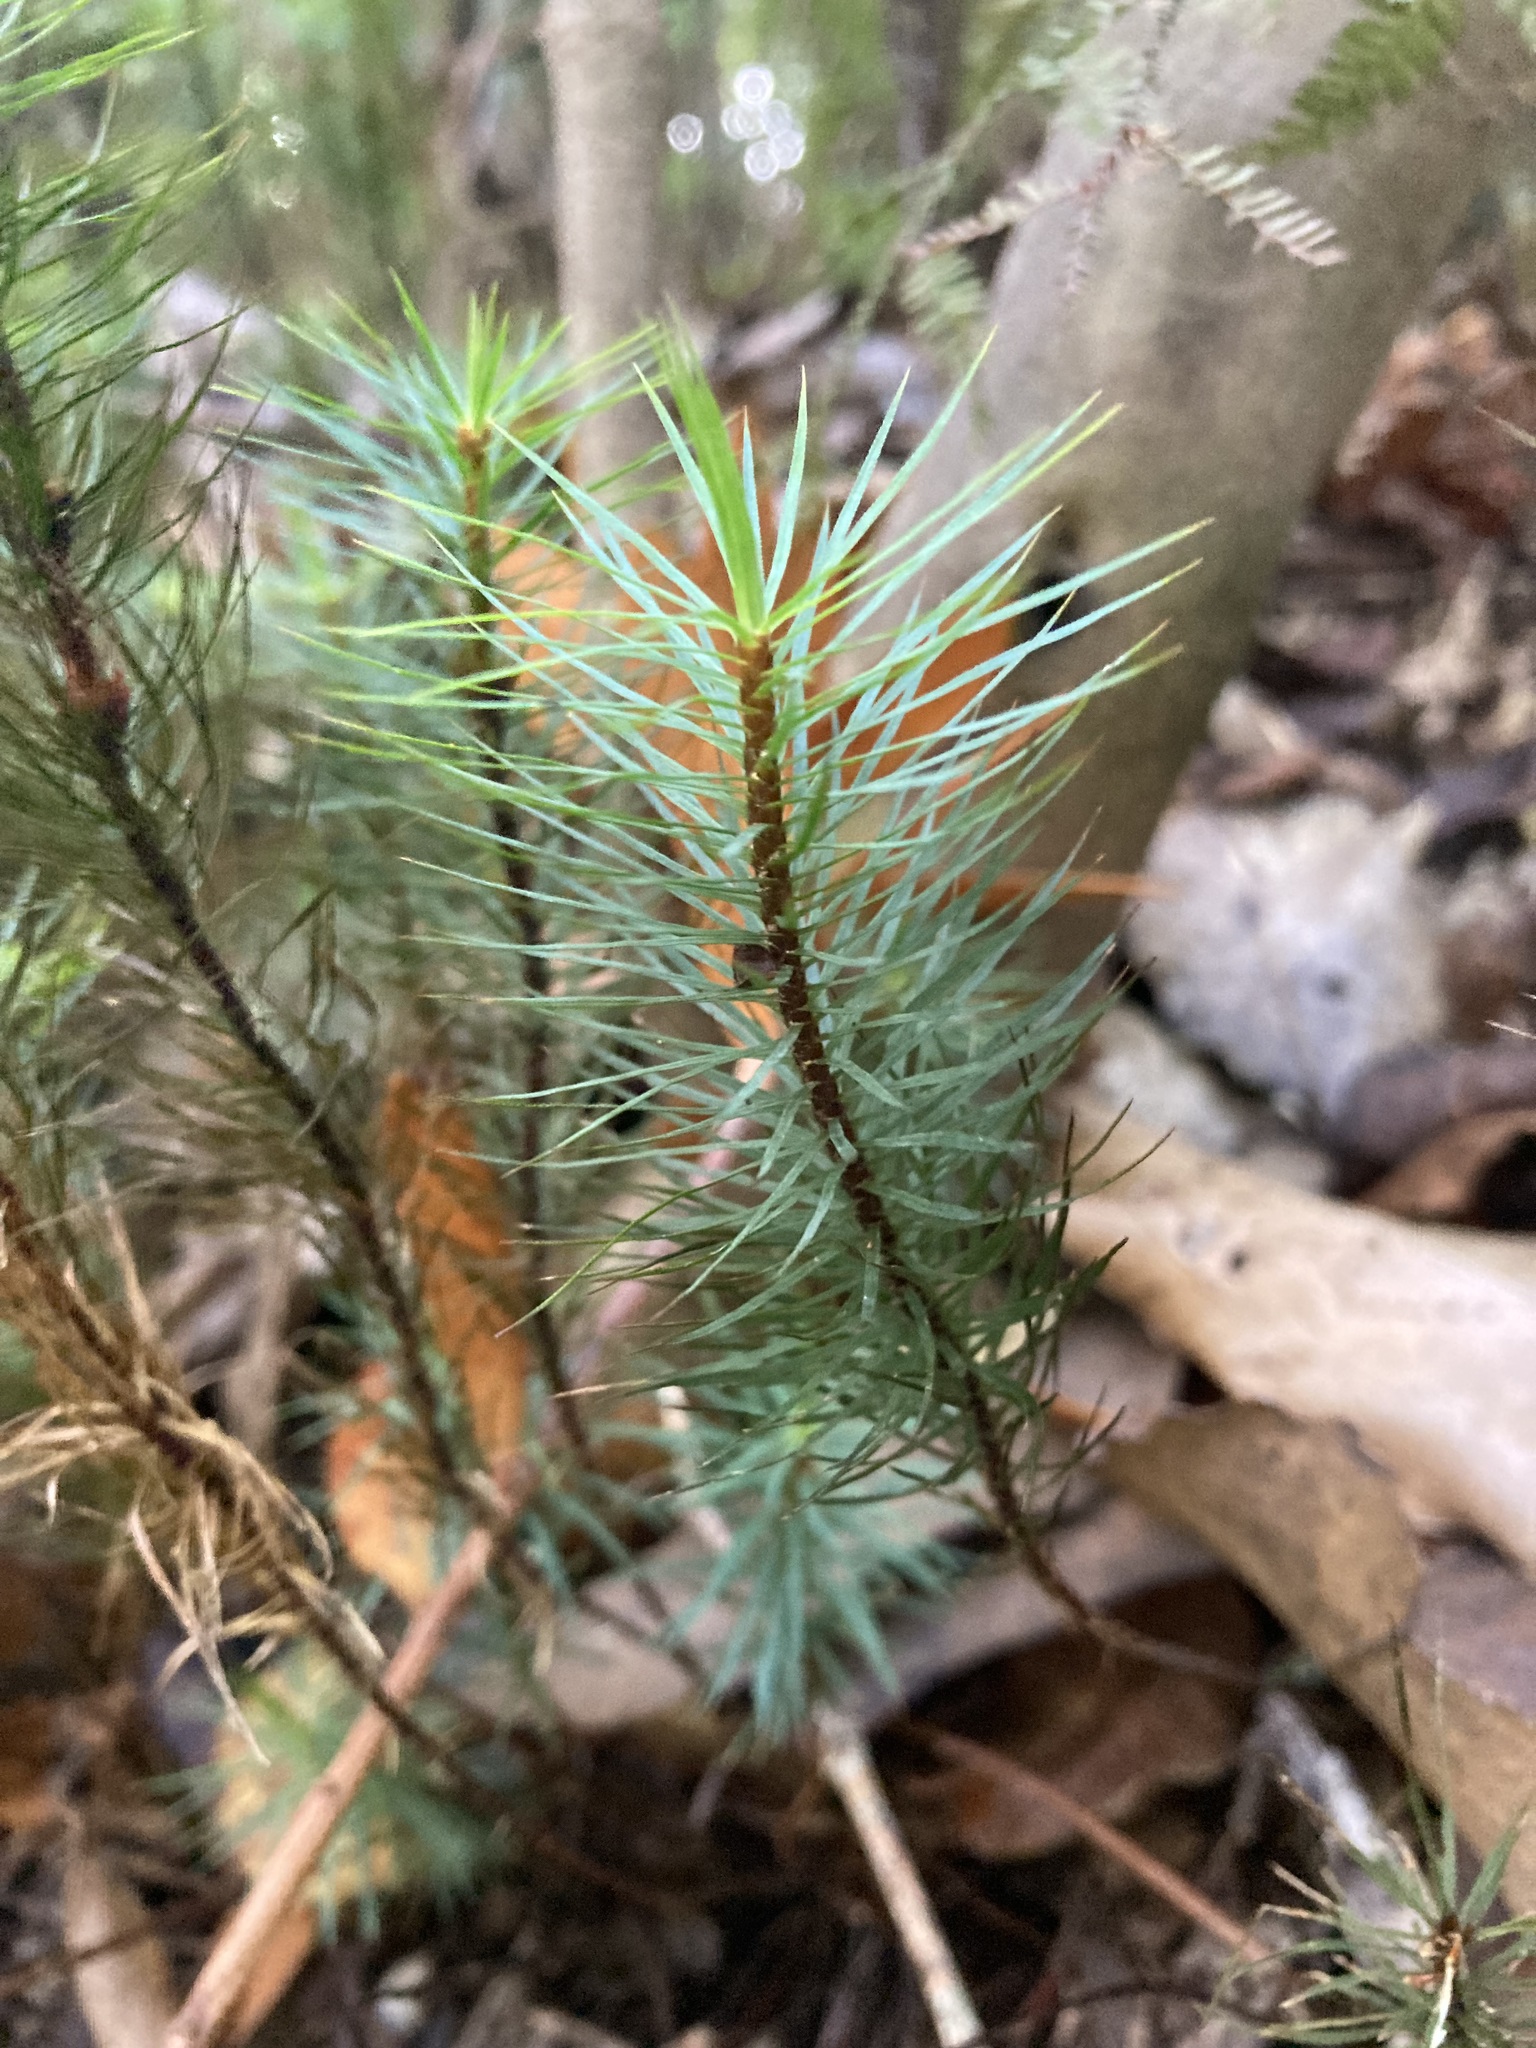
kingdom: Plantae
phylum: Bryophyta
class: Polytrichopsida
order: Polytrichales
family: Polytrichaceae
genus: Dawsonia
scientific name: Dawsonia superba
